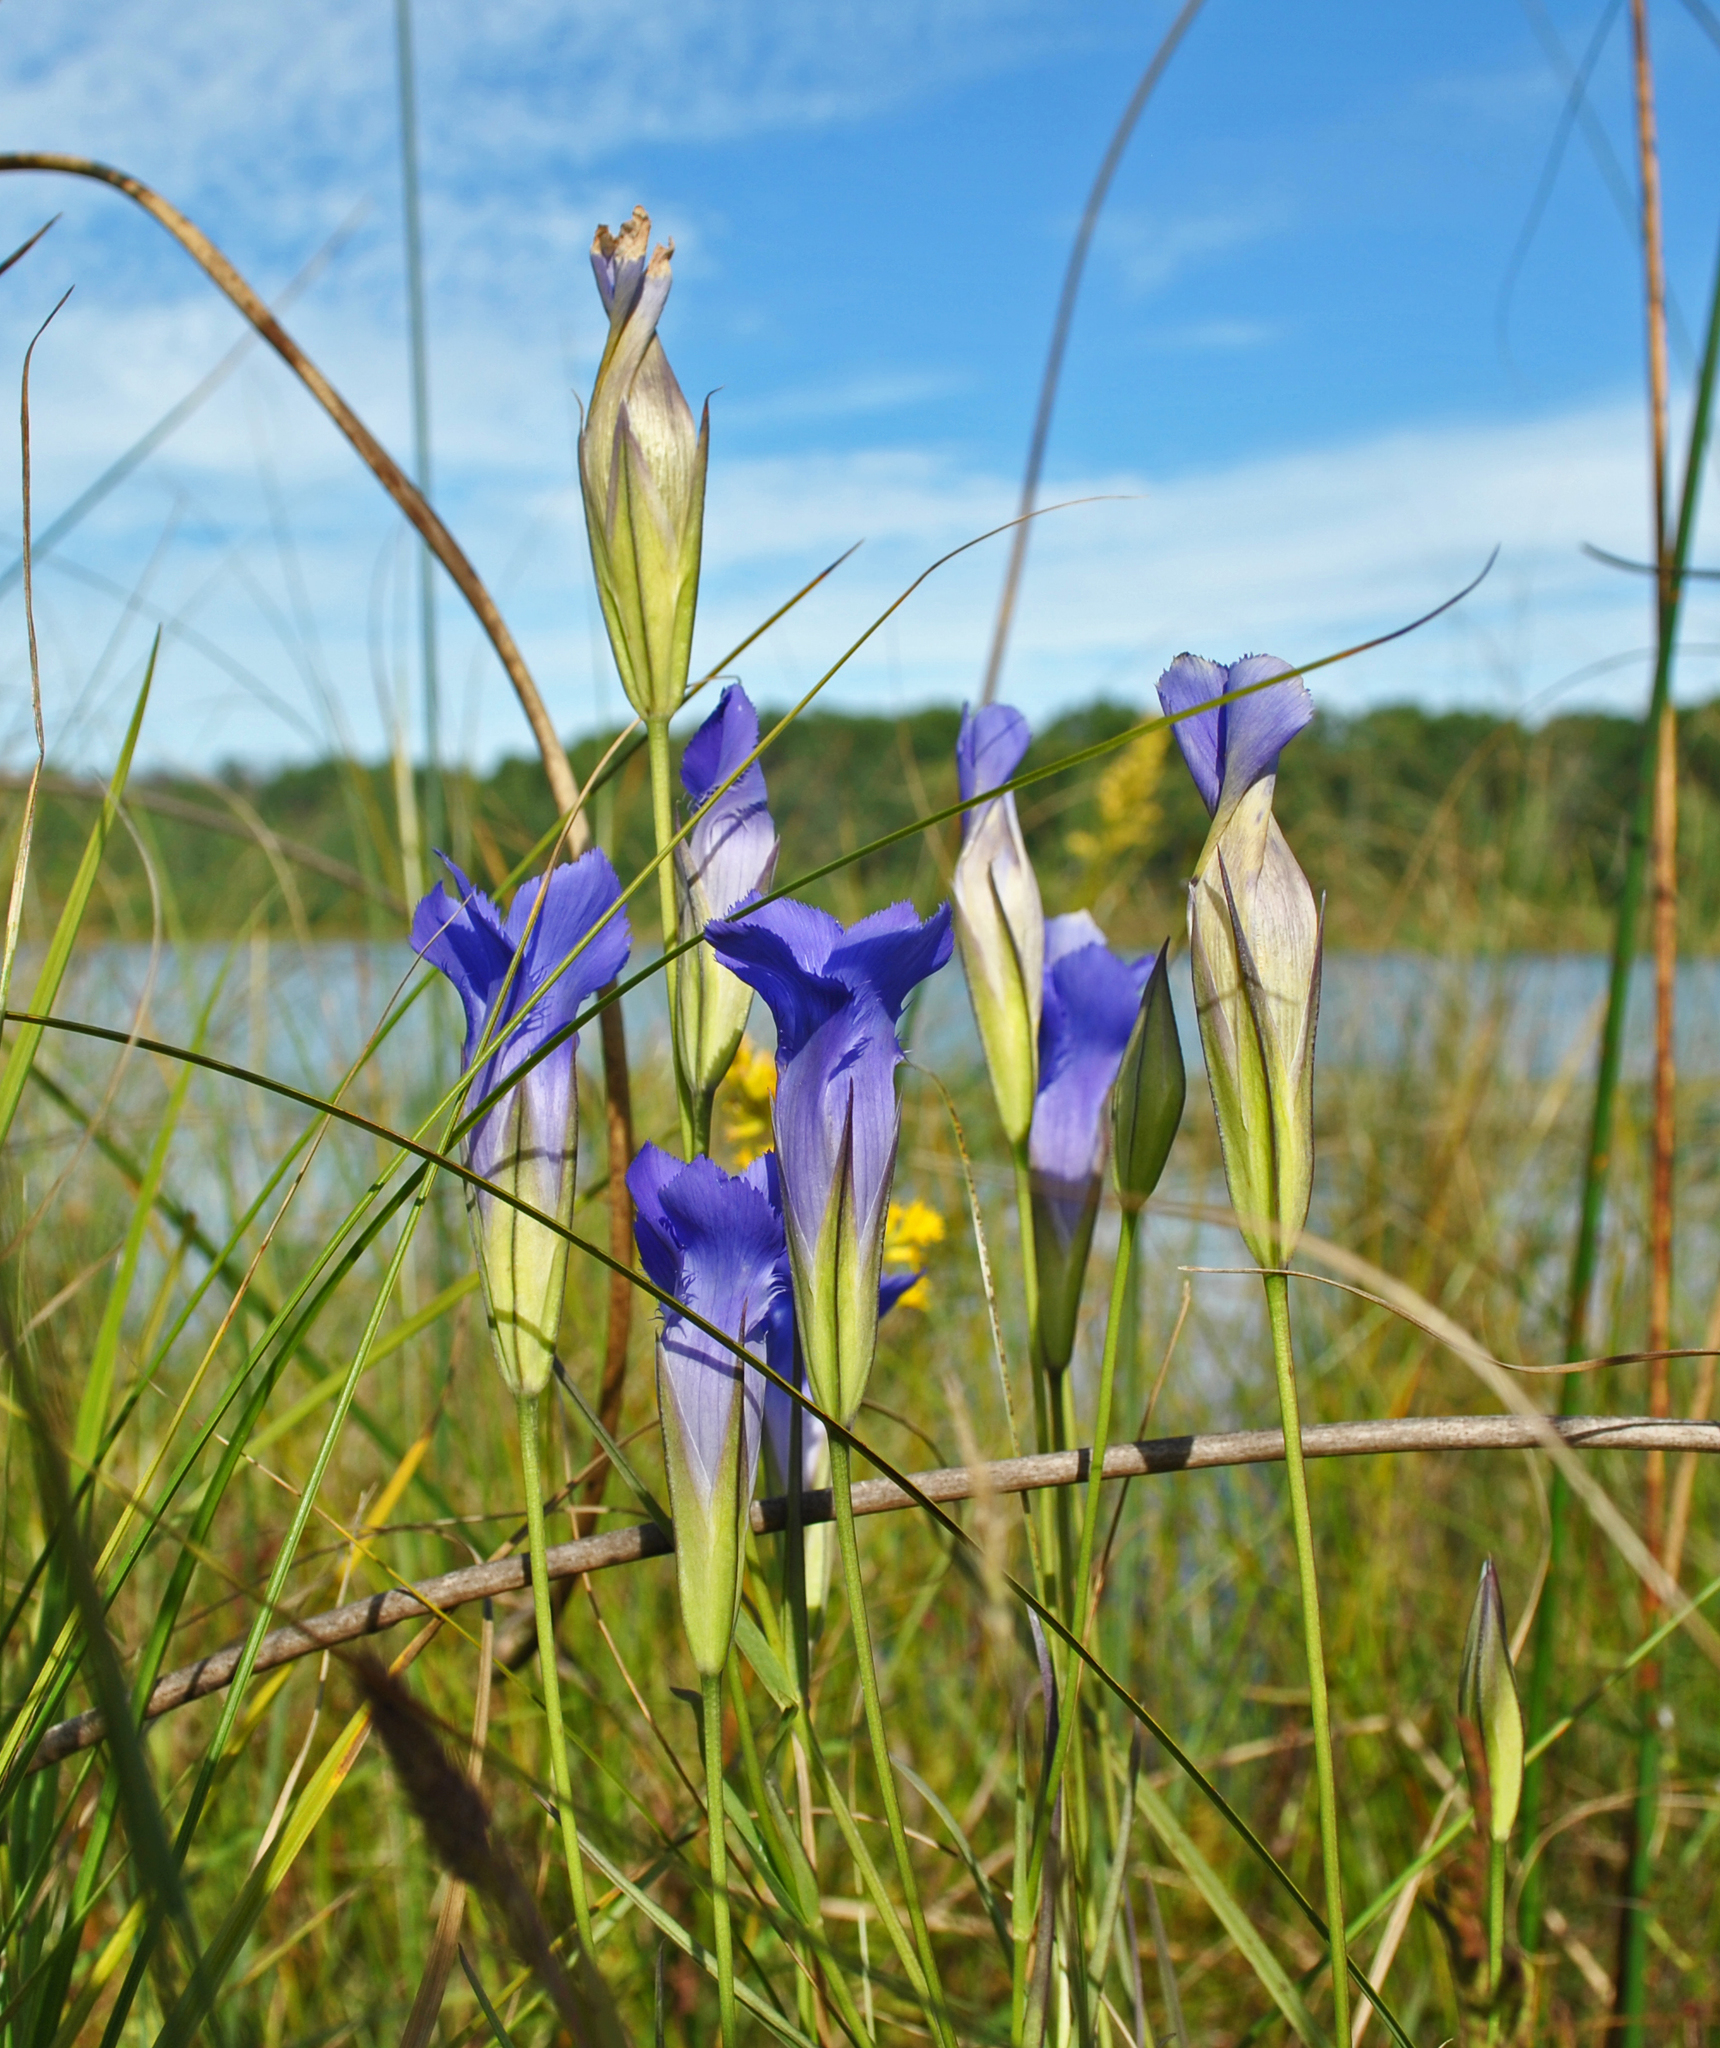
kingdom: Plantae
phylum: Tracheophyta
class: Magnoliopsida
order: Gentianales
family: Gentianaceae
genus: Gentianopsis
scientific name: Gentianopsis virgata
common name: Lesser fringed-gentian
